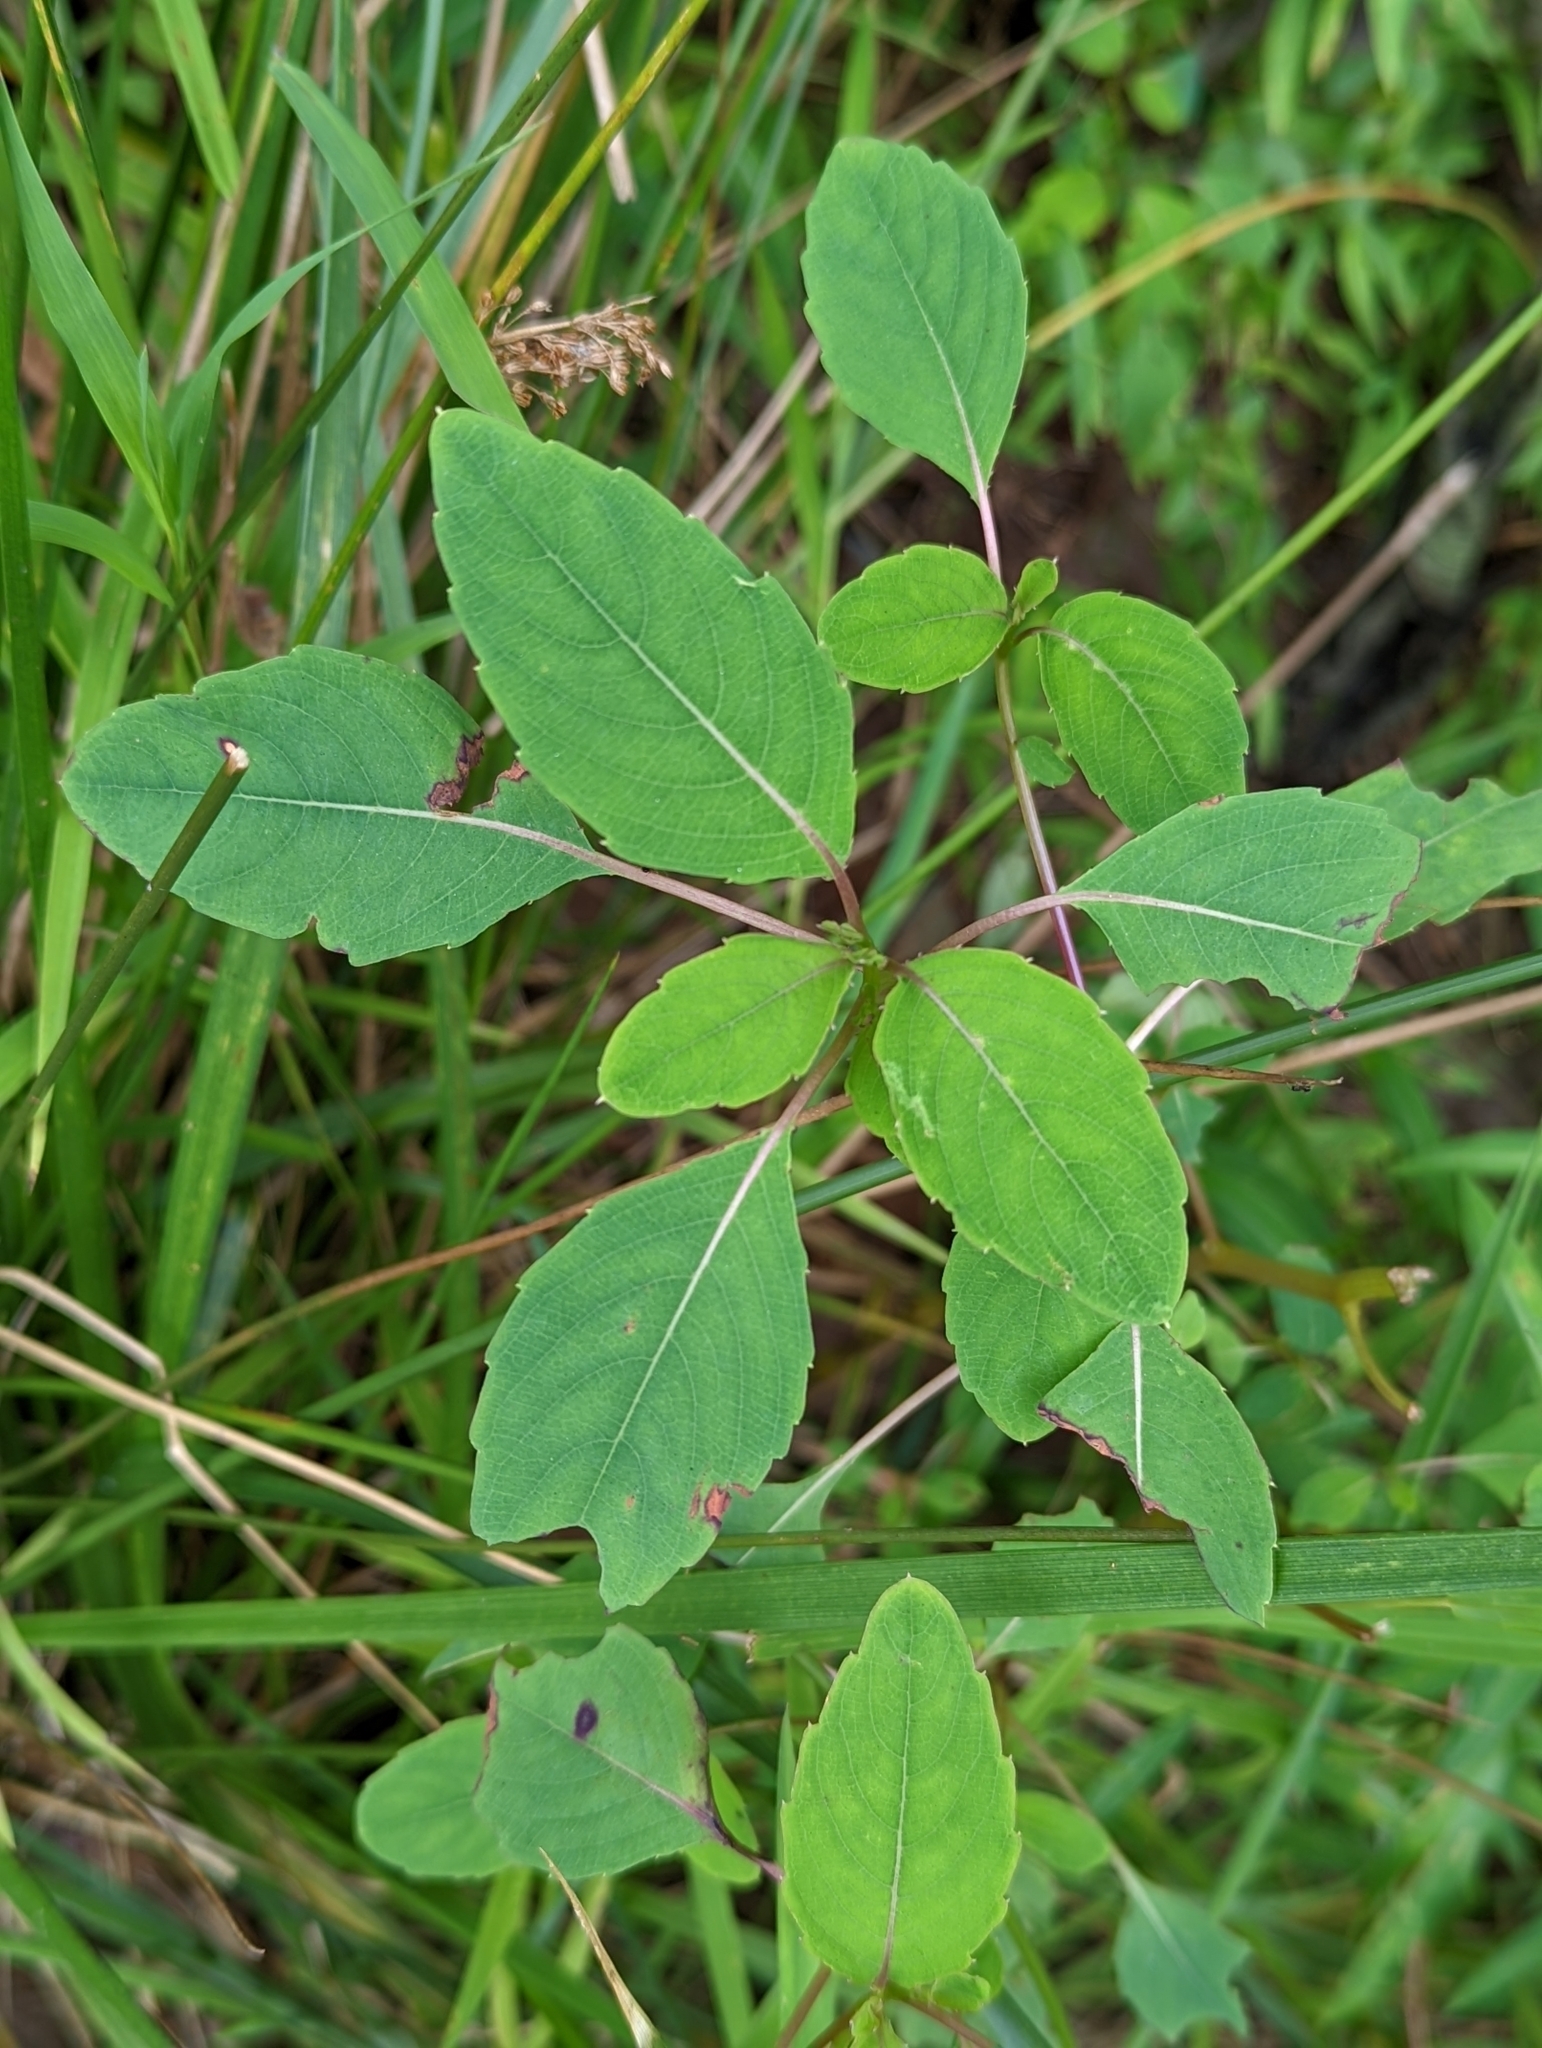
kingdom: Plantae
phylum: Tracheophyta
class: Magnoliopsida
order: Ericales
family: Balsaminaceae
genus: Impatiens
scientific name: Impatiens capensis
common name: Orange balsam
